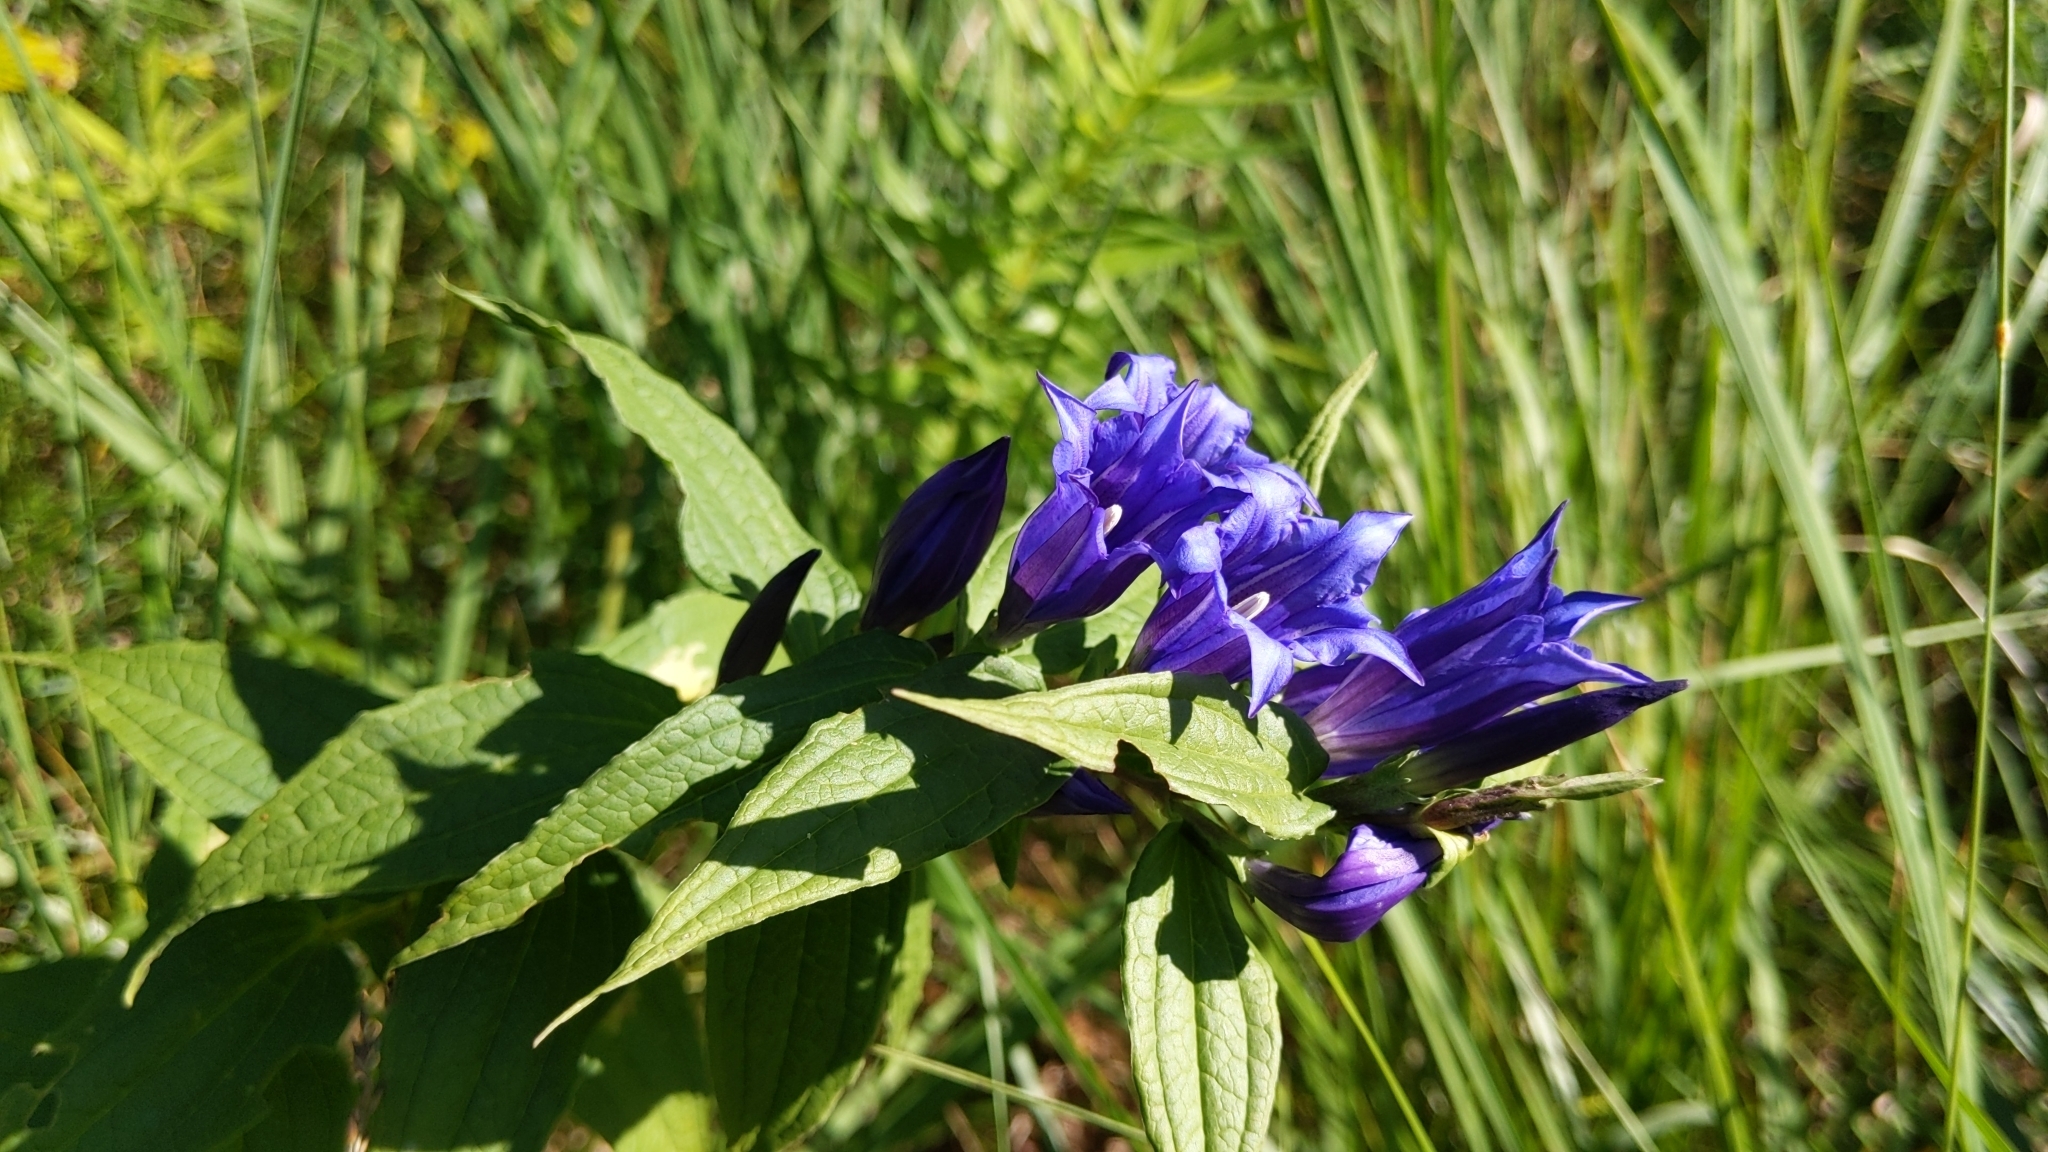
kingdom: Plantae
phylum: Tracheophyta
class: Magnoliopsida
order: Gentianales
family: Gentianaceae
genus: Gentiana
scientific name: Gentiana asclepiadea
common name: Willow gentian
